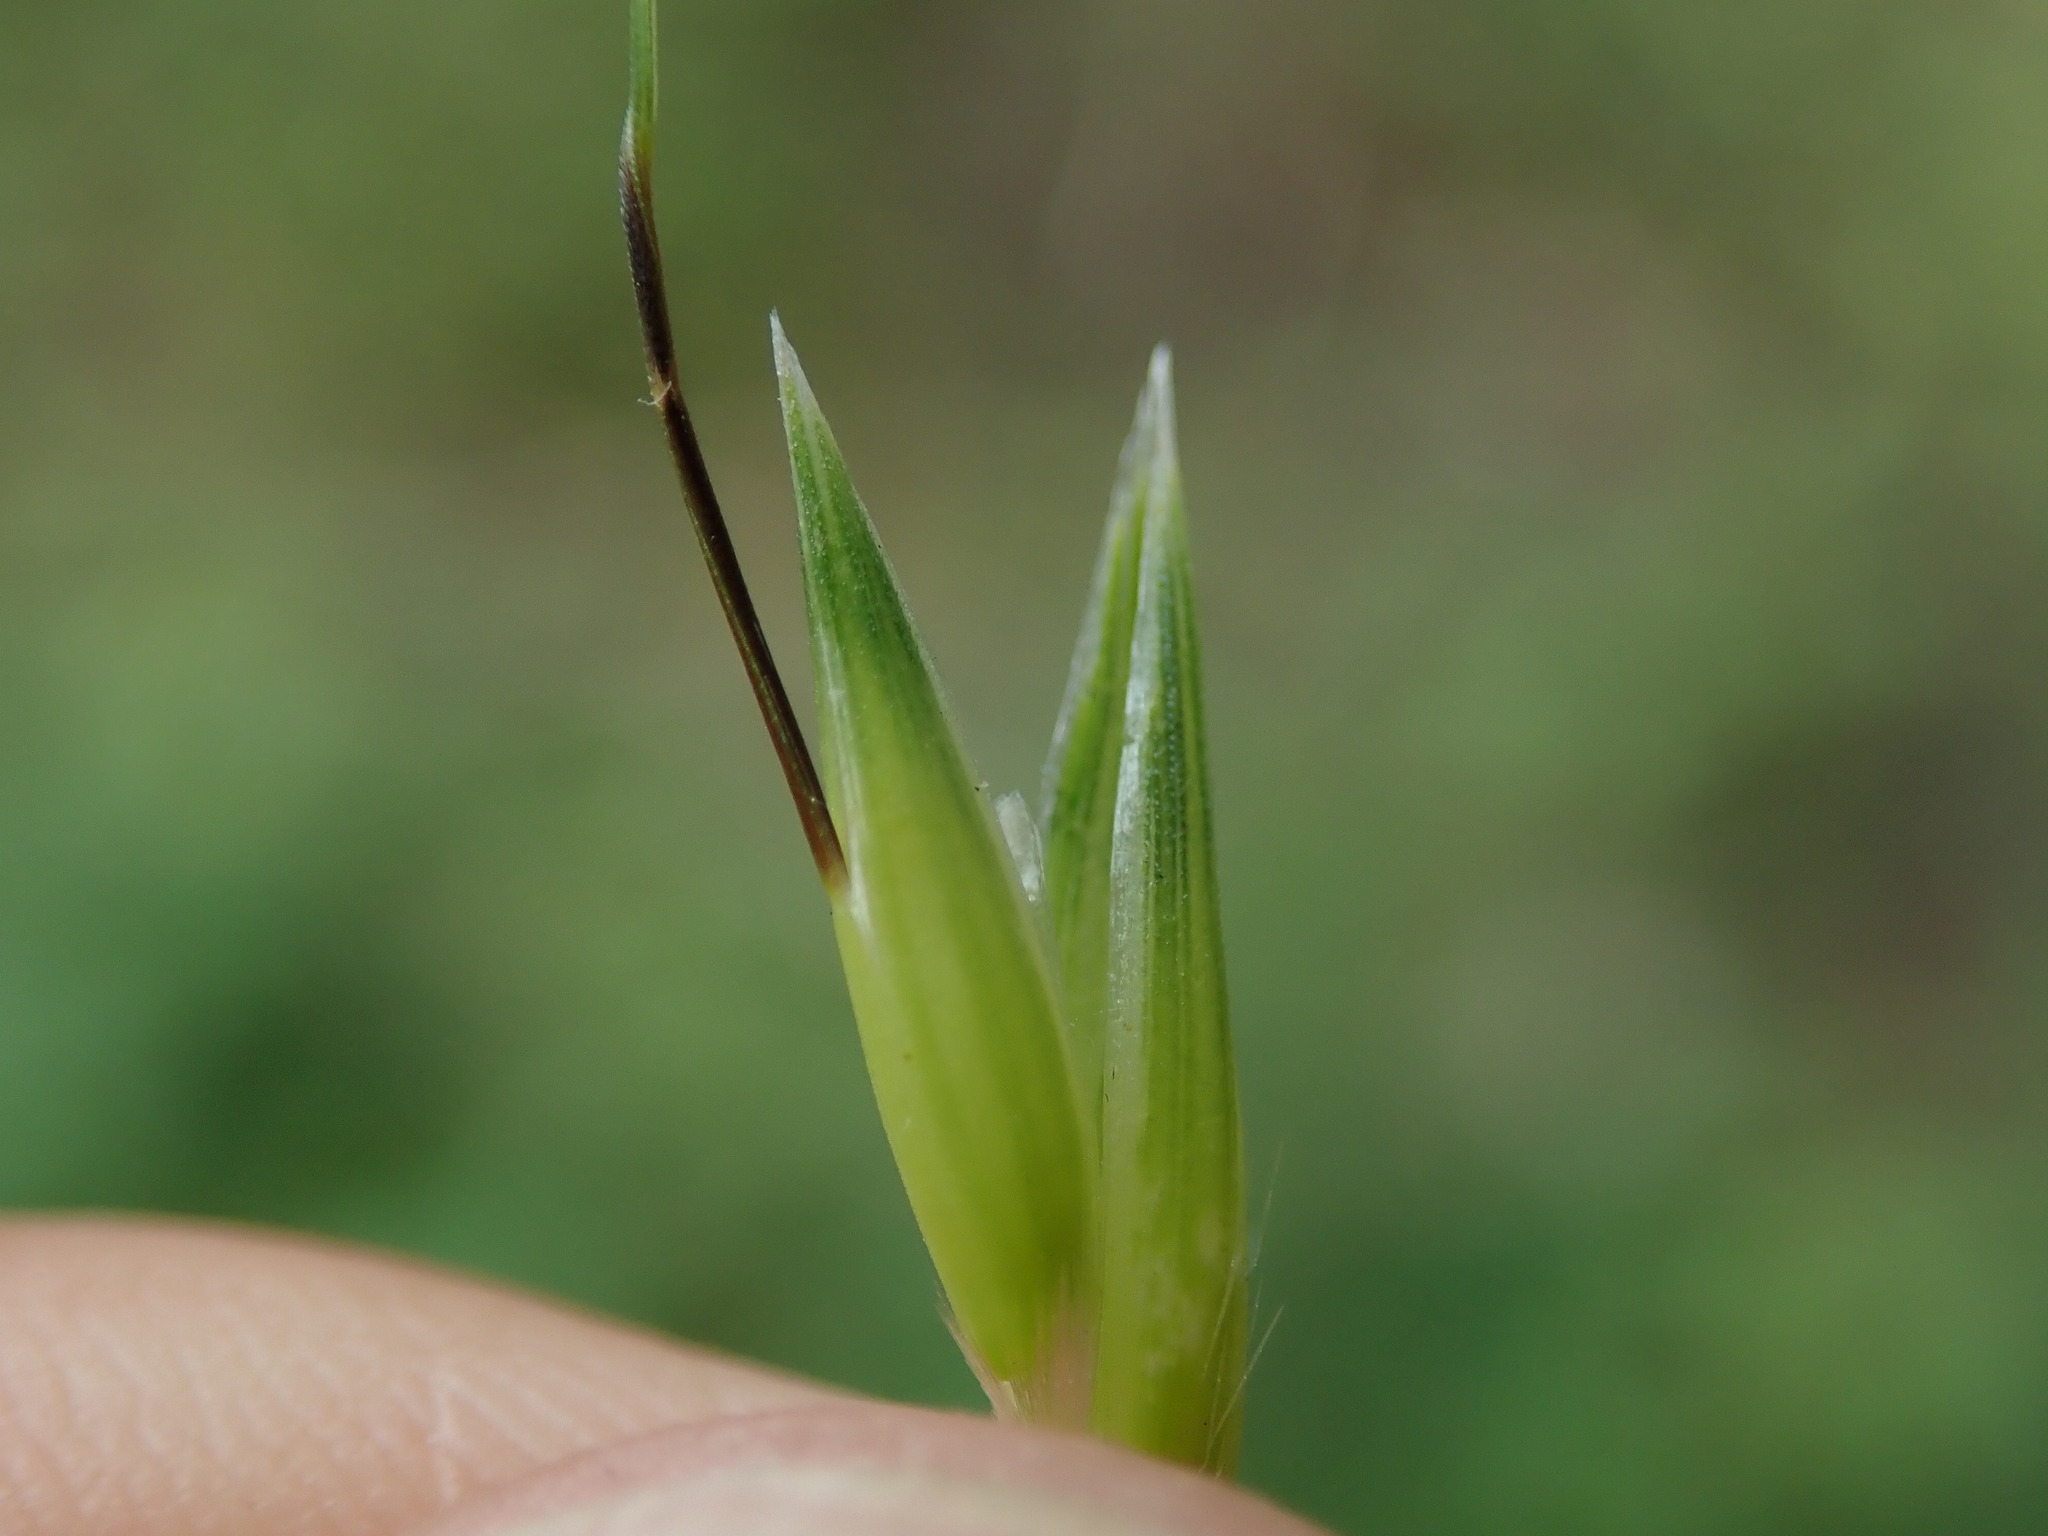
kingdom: Plantae
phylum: Tracheophyta
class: Liliopsida
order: Poales
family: Poaceae
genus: Avena
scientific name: Avena fatua
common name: Wild oat
